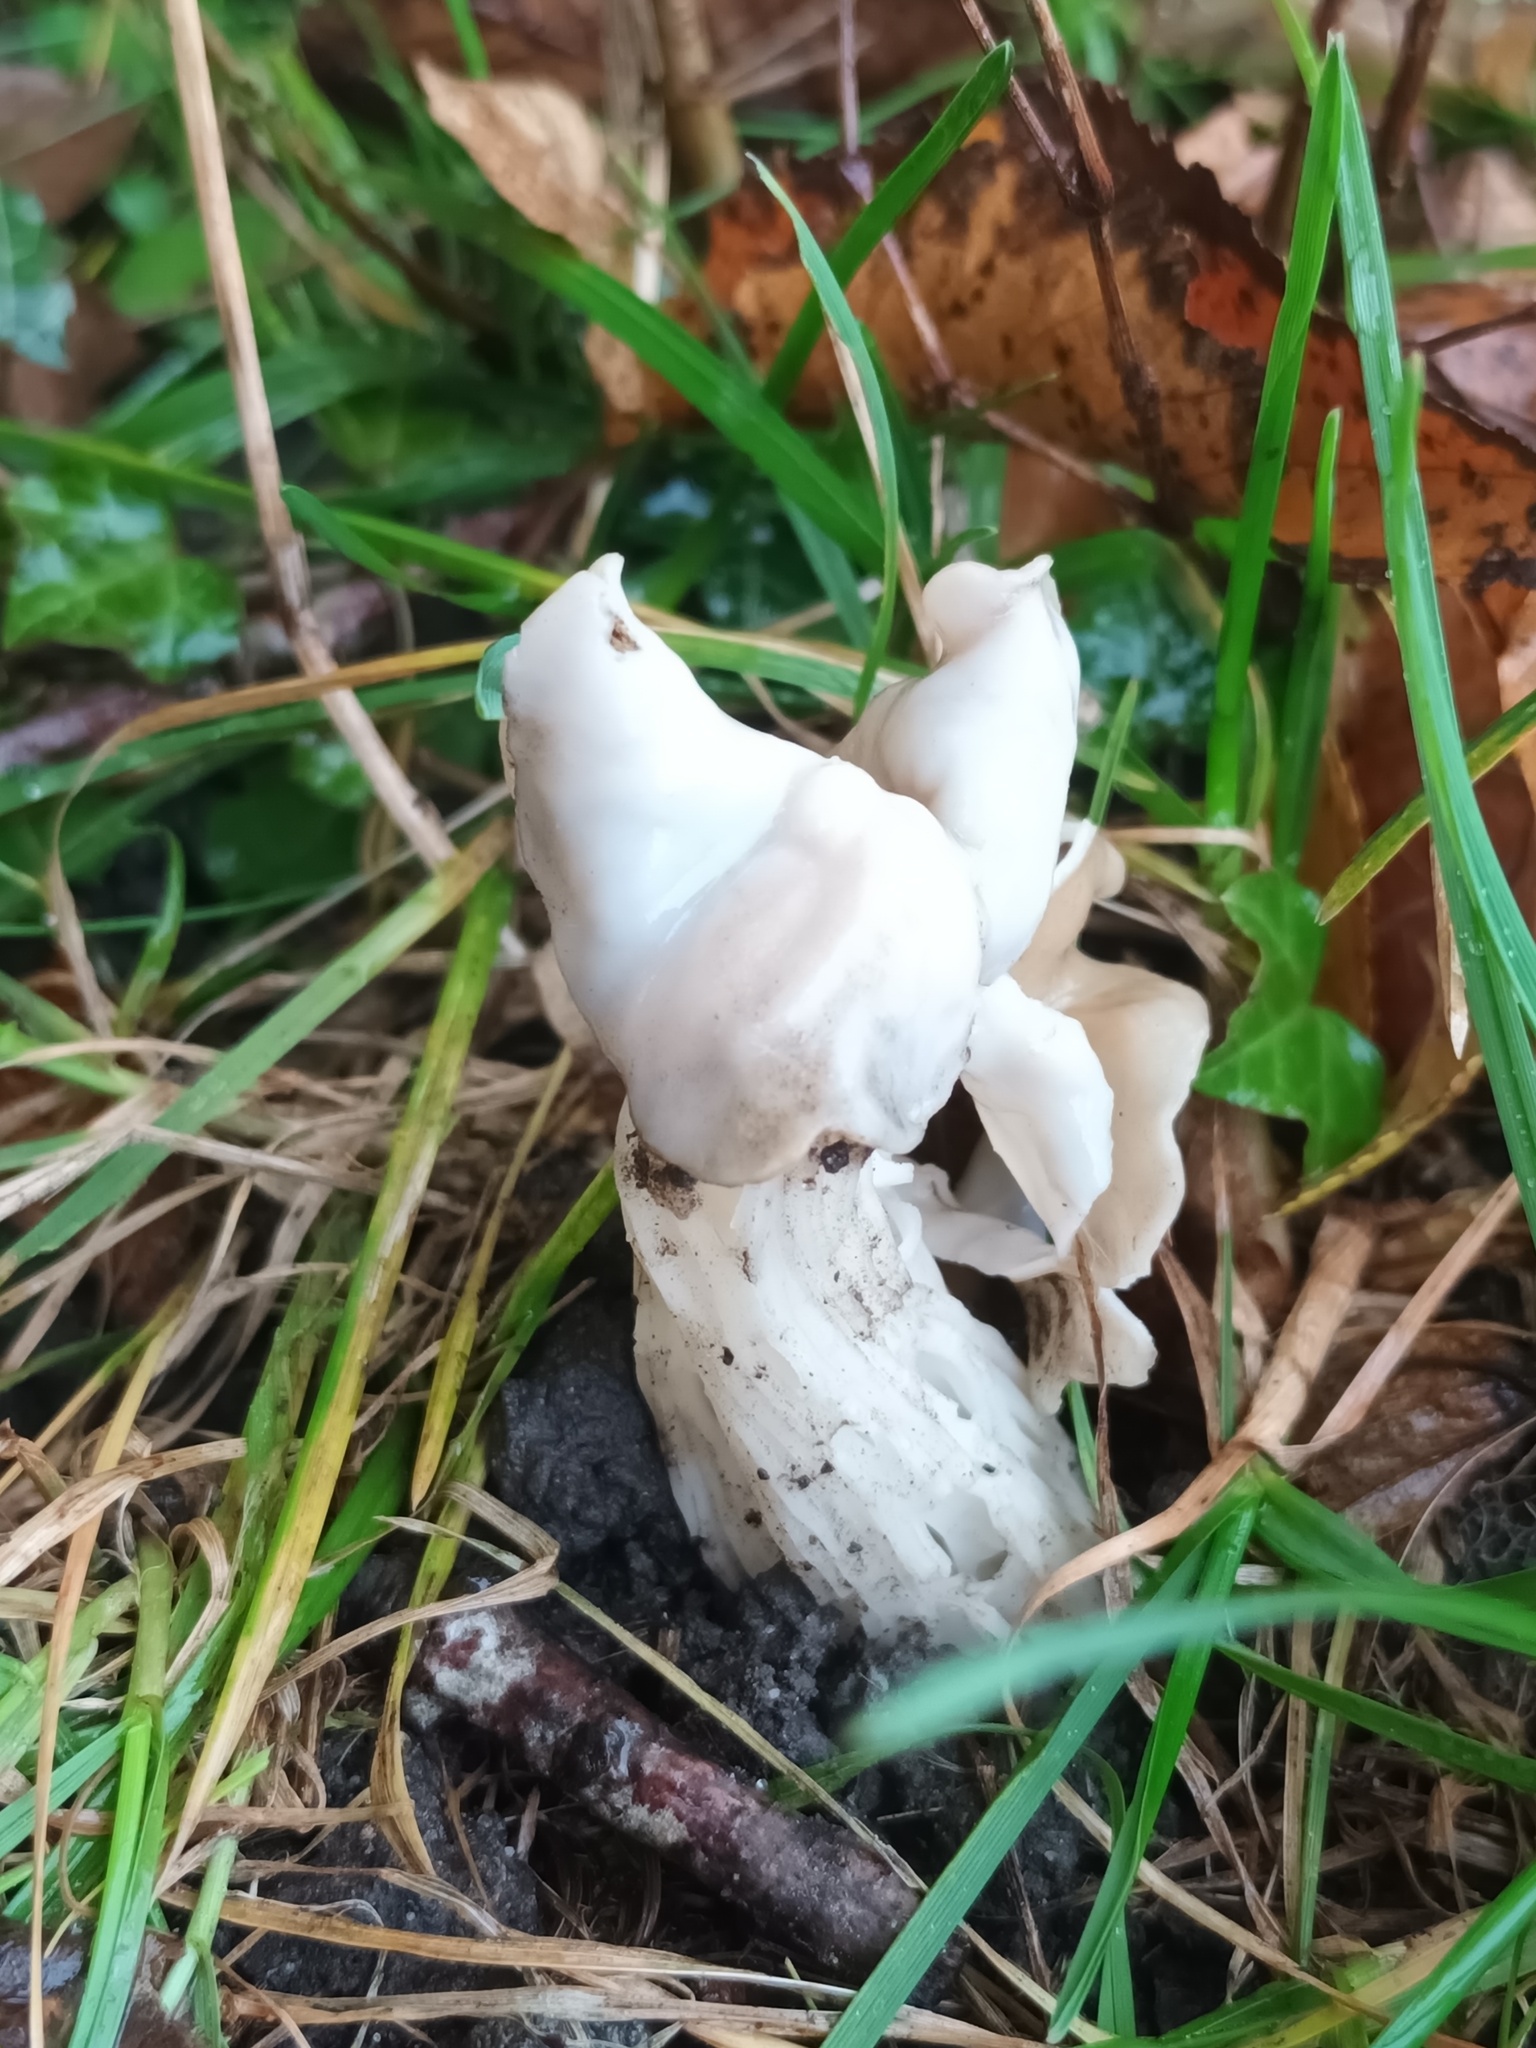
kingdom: Fungi
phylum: Ascomycota
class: Pezizomycetes
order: Pezizales
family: Helvellaceae
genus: Helvella
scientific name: Helvella crispa
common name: White saddle
